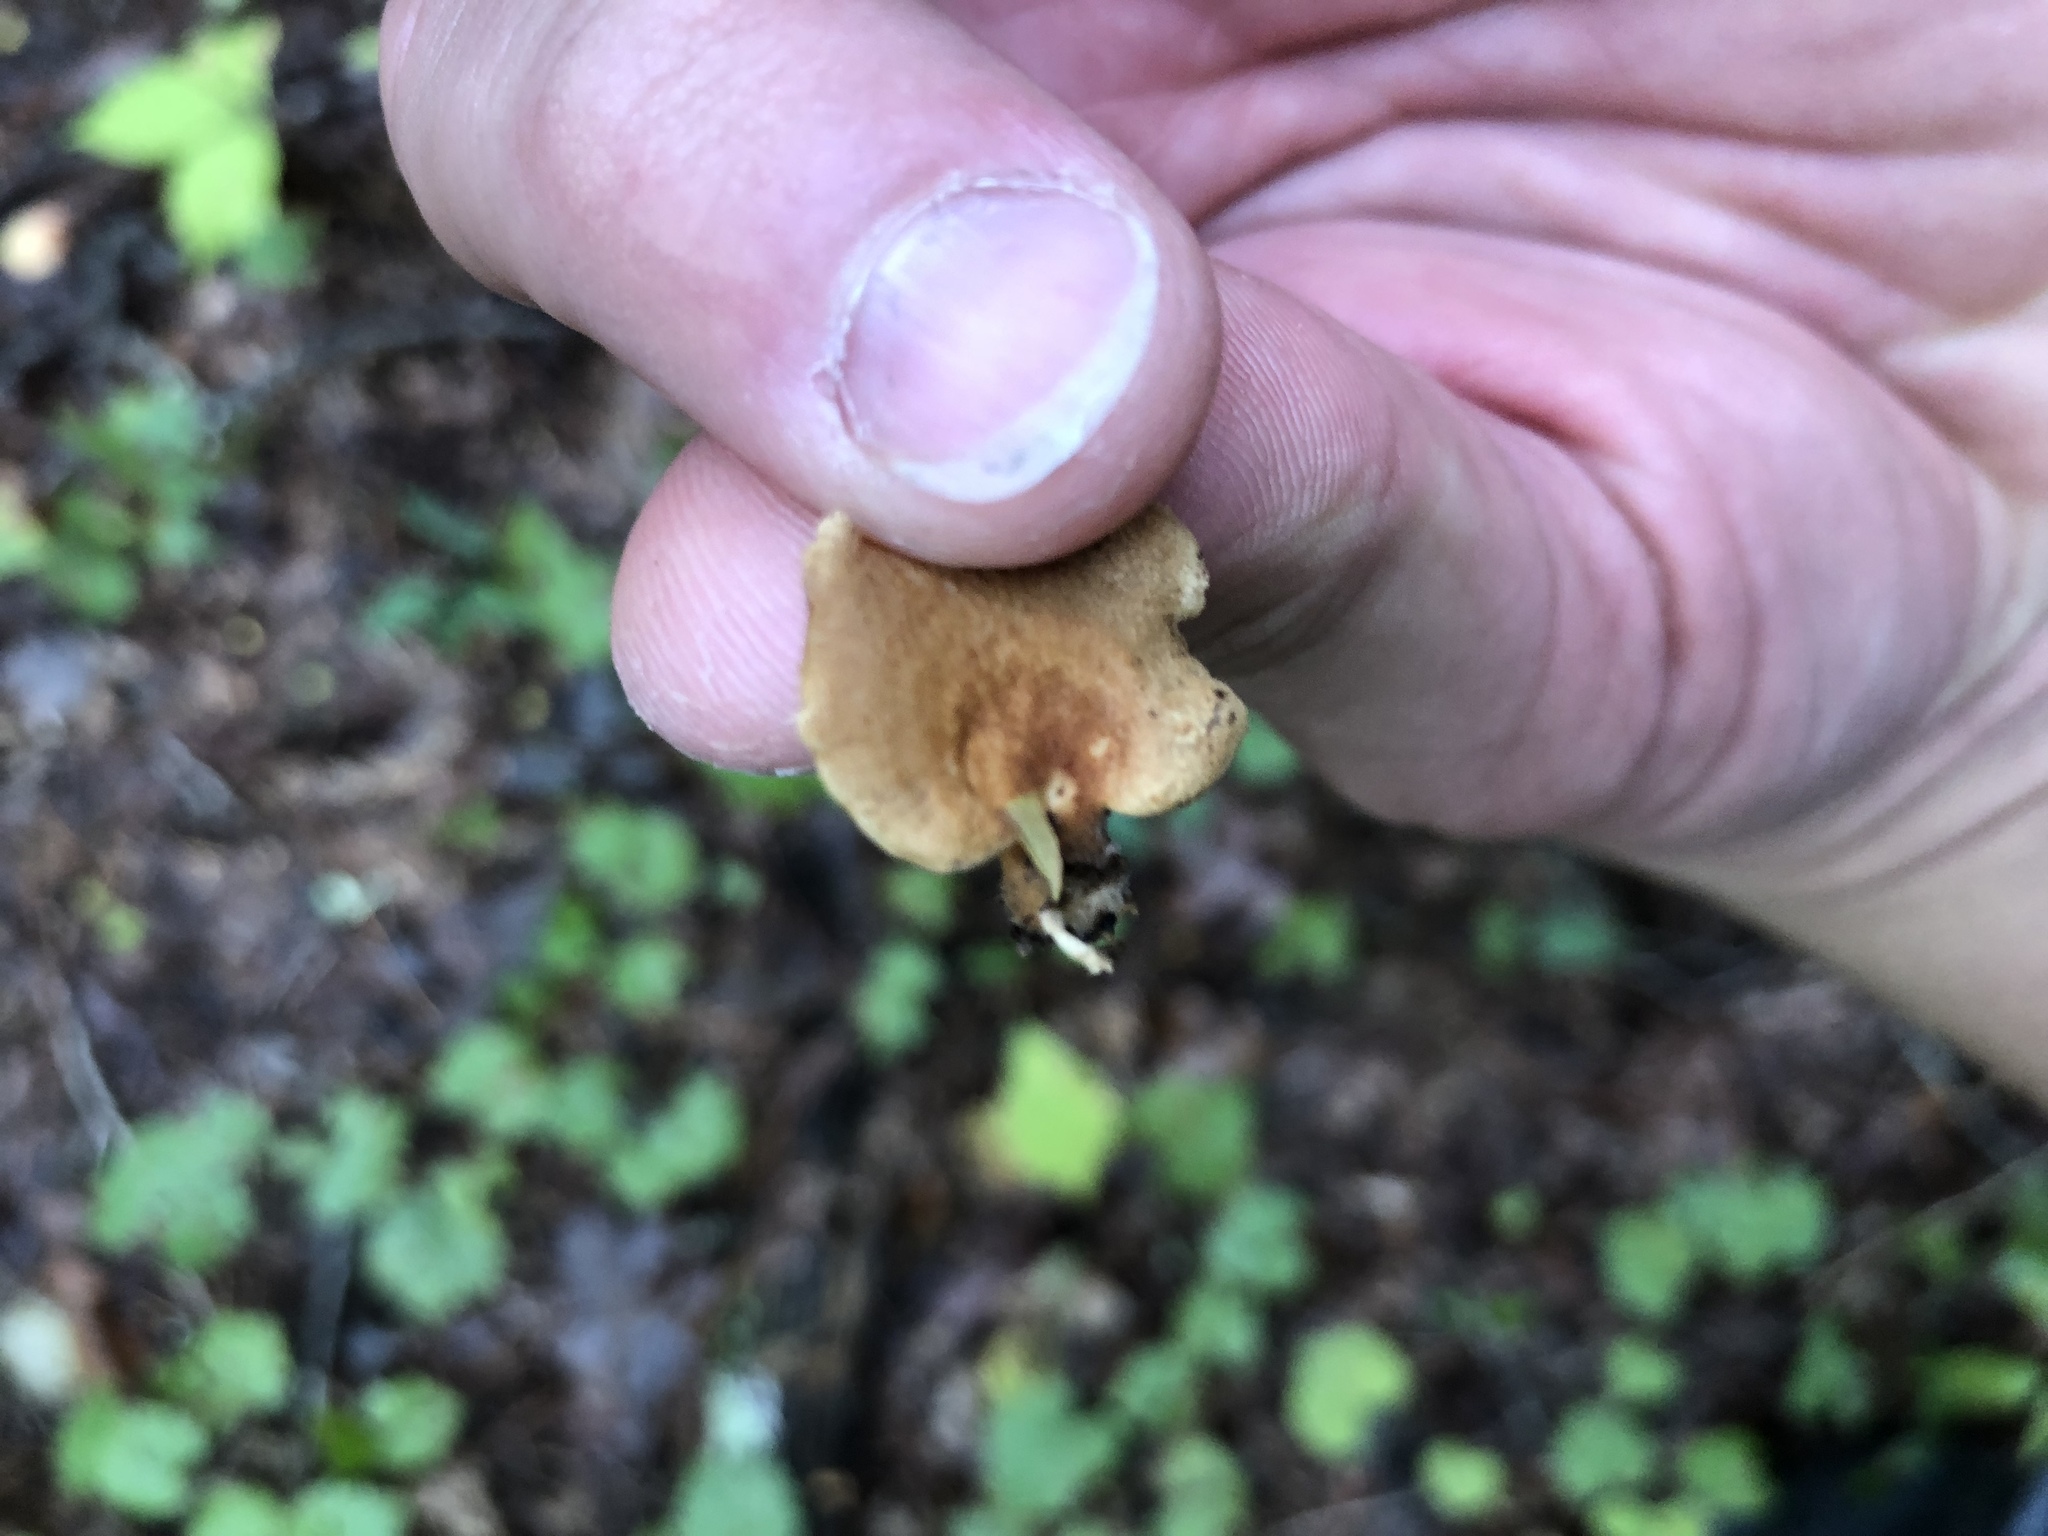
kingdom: Fungi
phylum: Basidiomycota
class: Agaricomycetes
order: Agaricales
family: Mycenaceae
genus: Panellus
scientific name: Panellus stipticus
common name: Bitter oysterling
